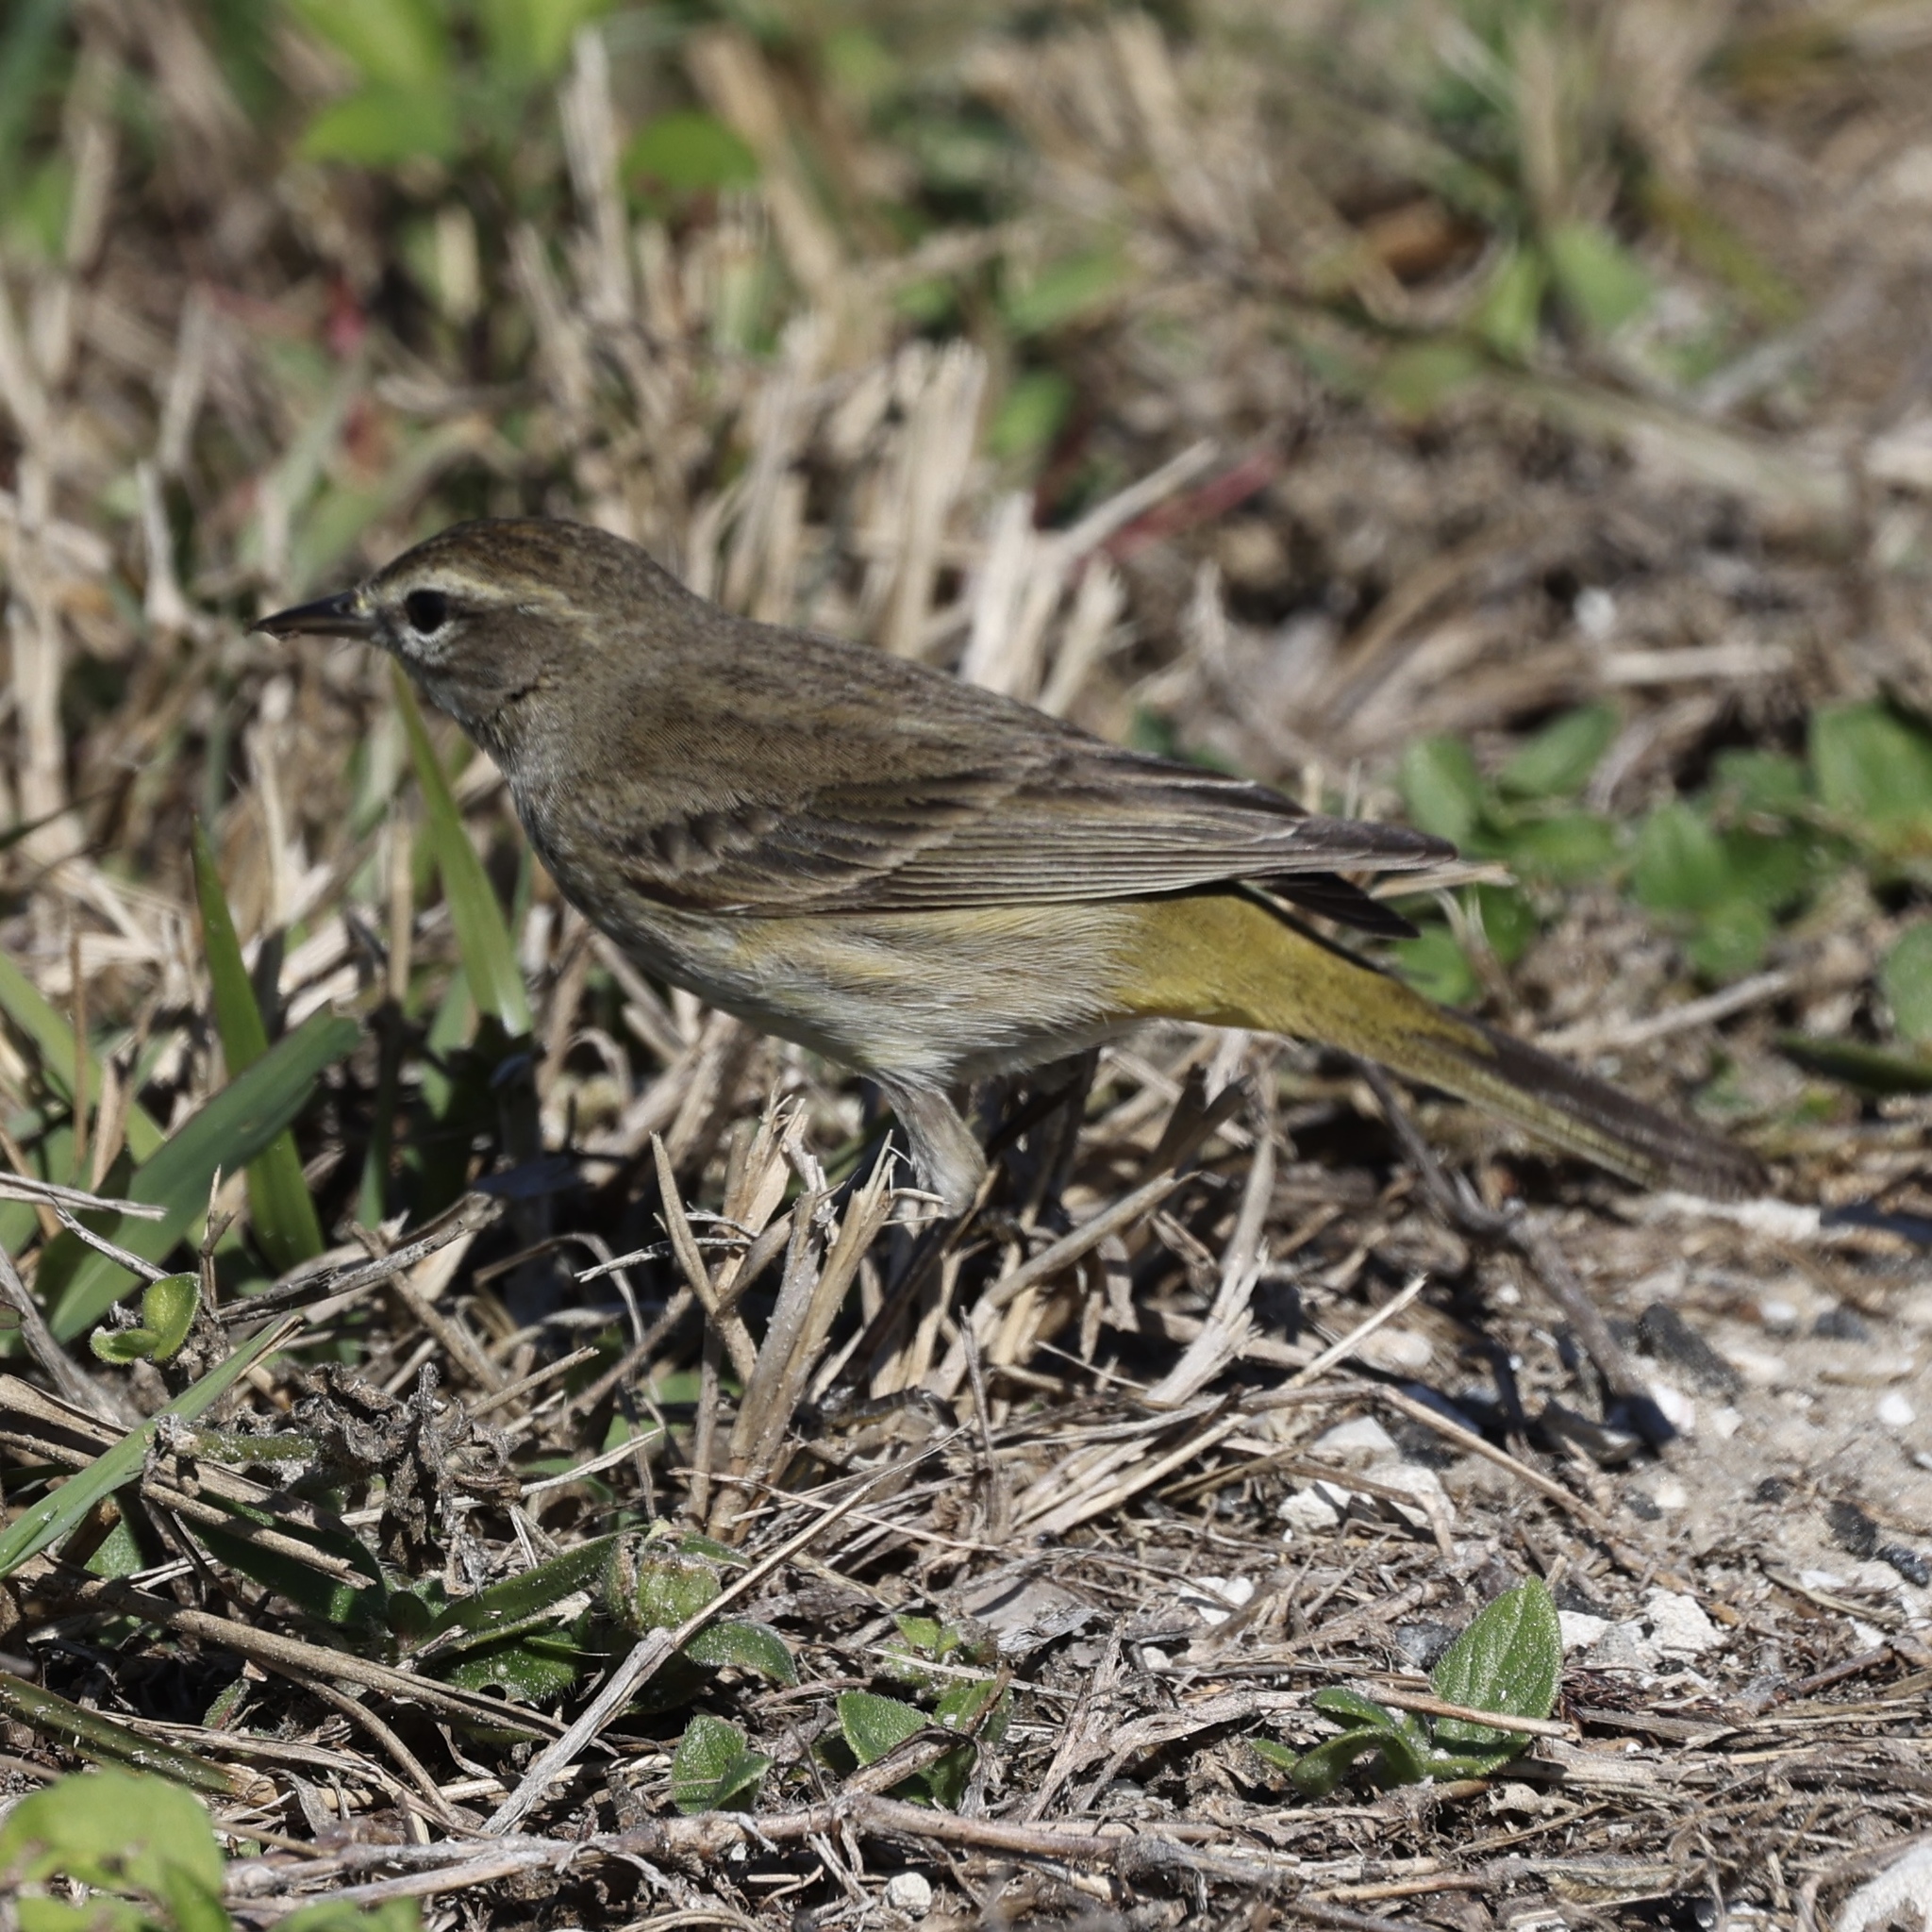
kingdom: Animalia
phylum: Chordata
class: Aves
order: Passeriformes
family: Parulidae
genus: Setophaga
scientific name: Setophaga palmarum
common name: Palm warbler
